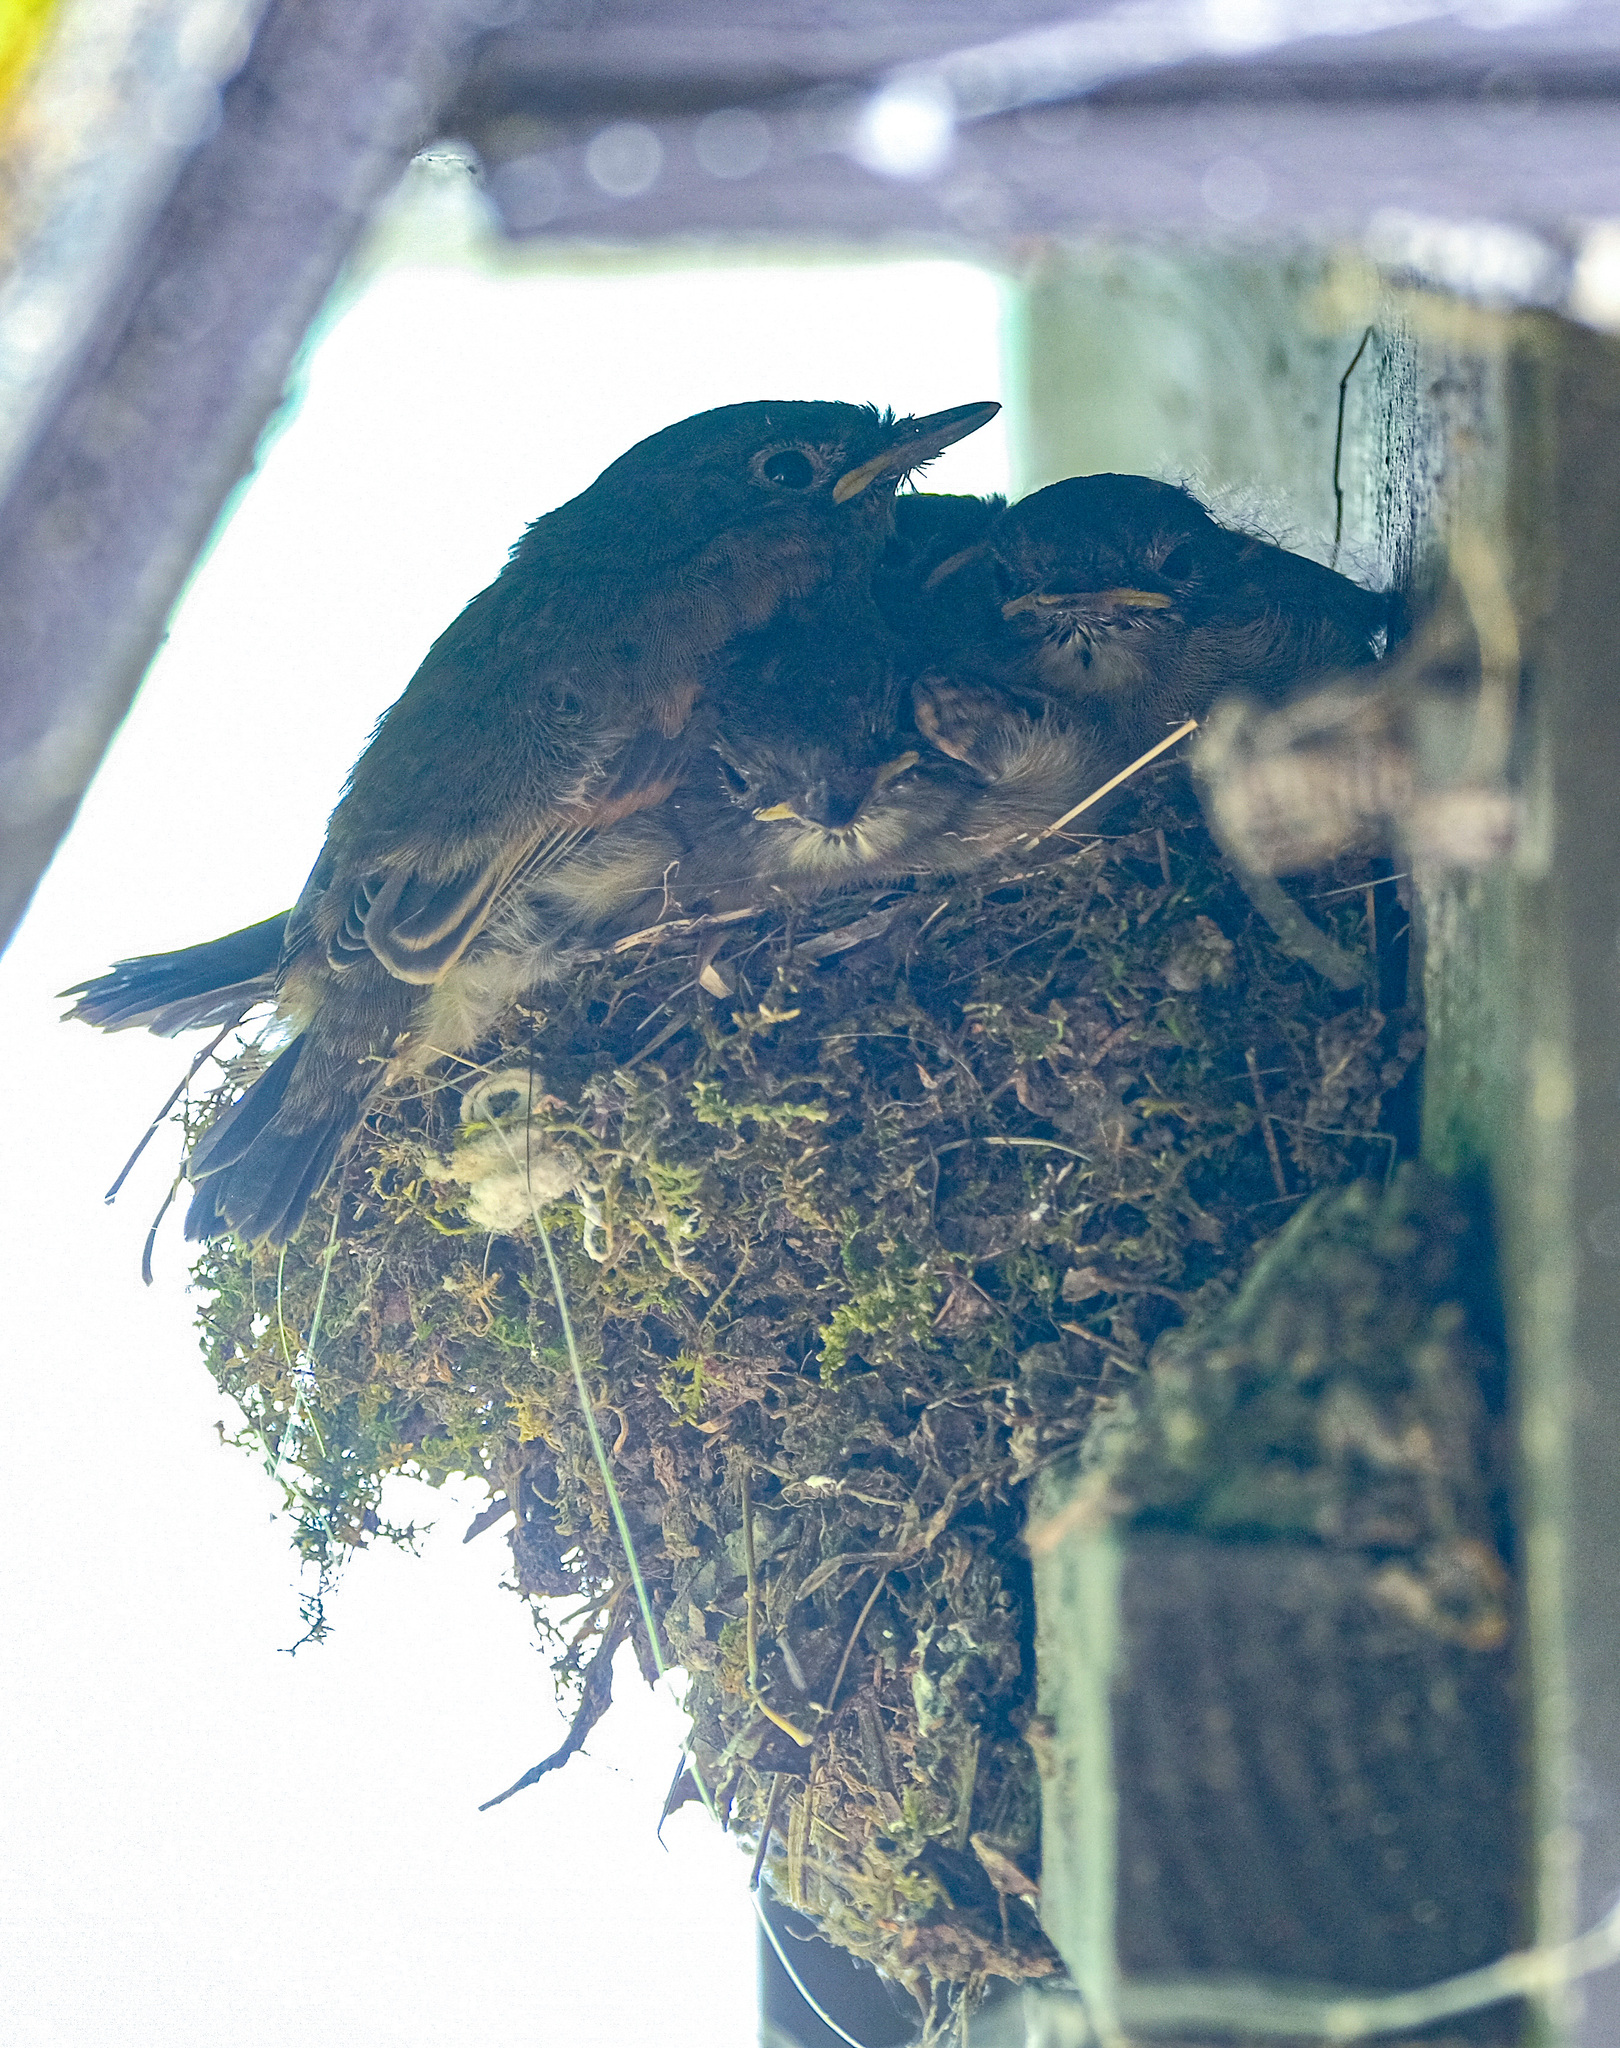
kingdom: Animalia
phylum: Chordata
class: Aves
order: Passeriformes
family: Tyrannidae
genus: Sayornis
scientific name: Sayornis phoebe
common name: Eastern phoebe
